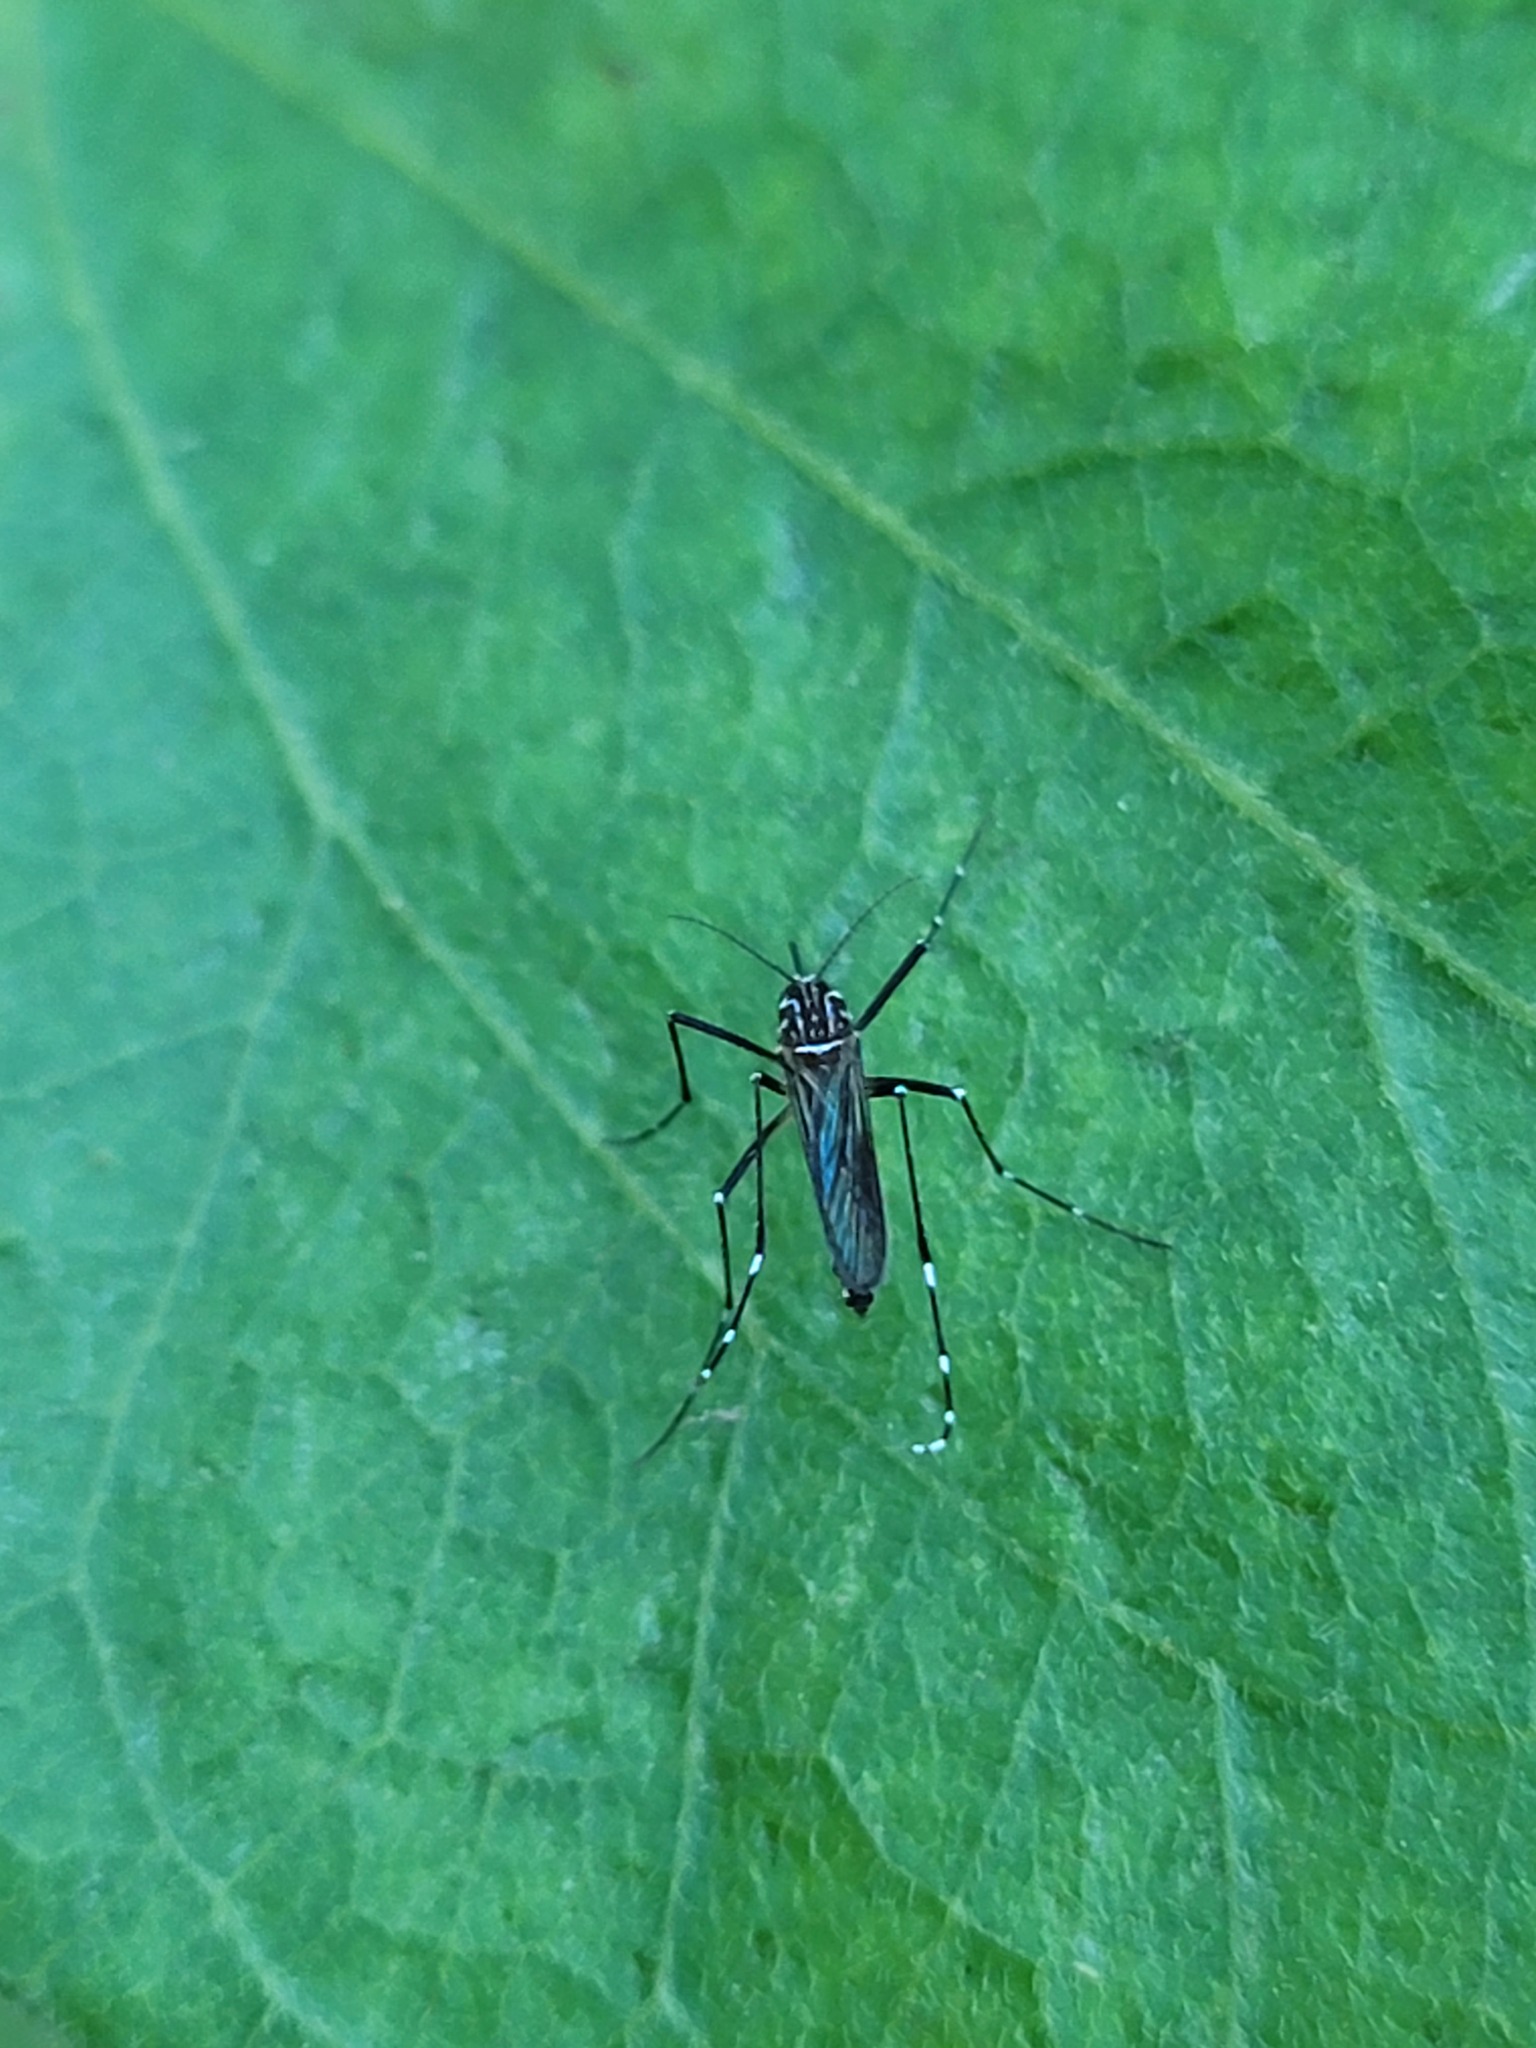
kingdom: Animalia
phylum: Arthropoda
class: Insecta
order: Diptera
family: Culicidae
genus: Aedes
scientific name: Aedes aegypti
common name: Yellow fever mosquito
